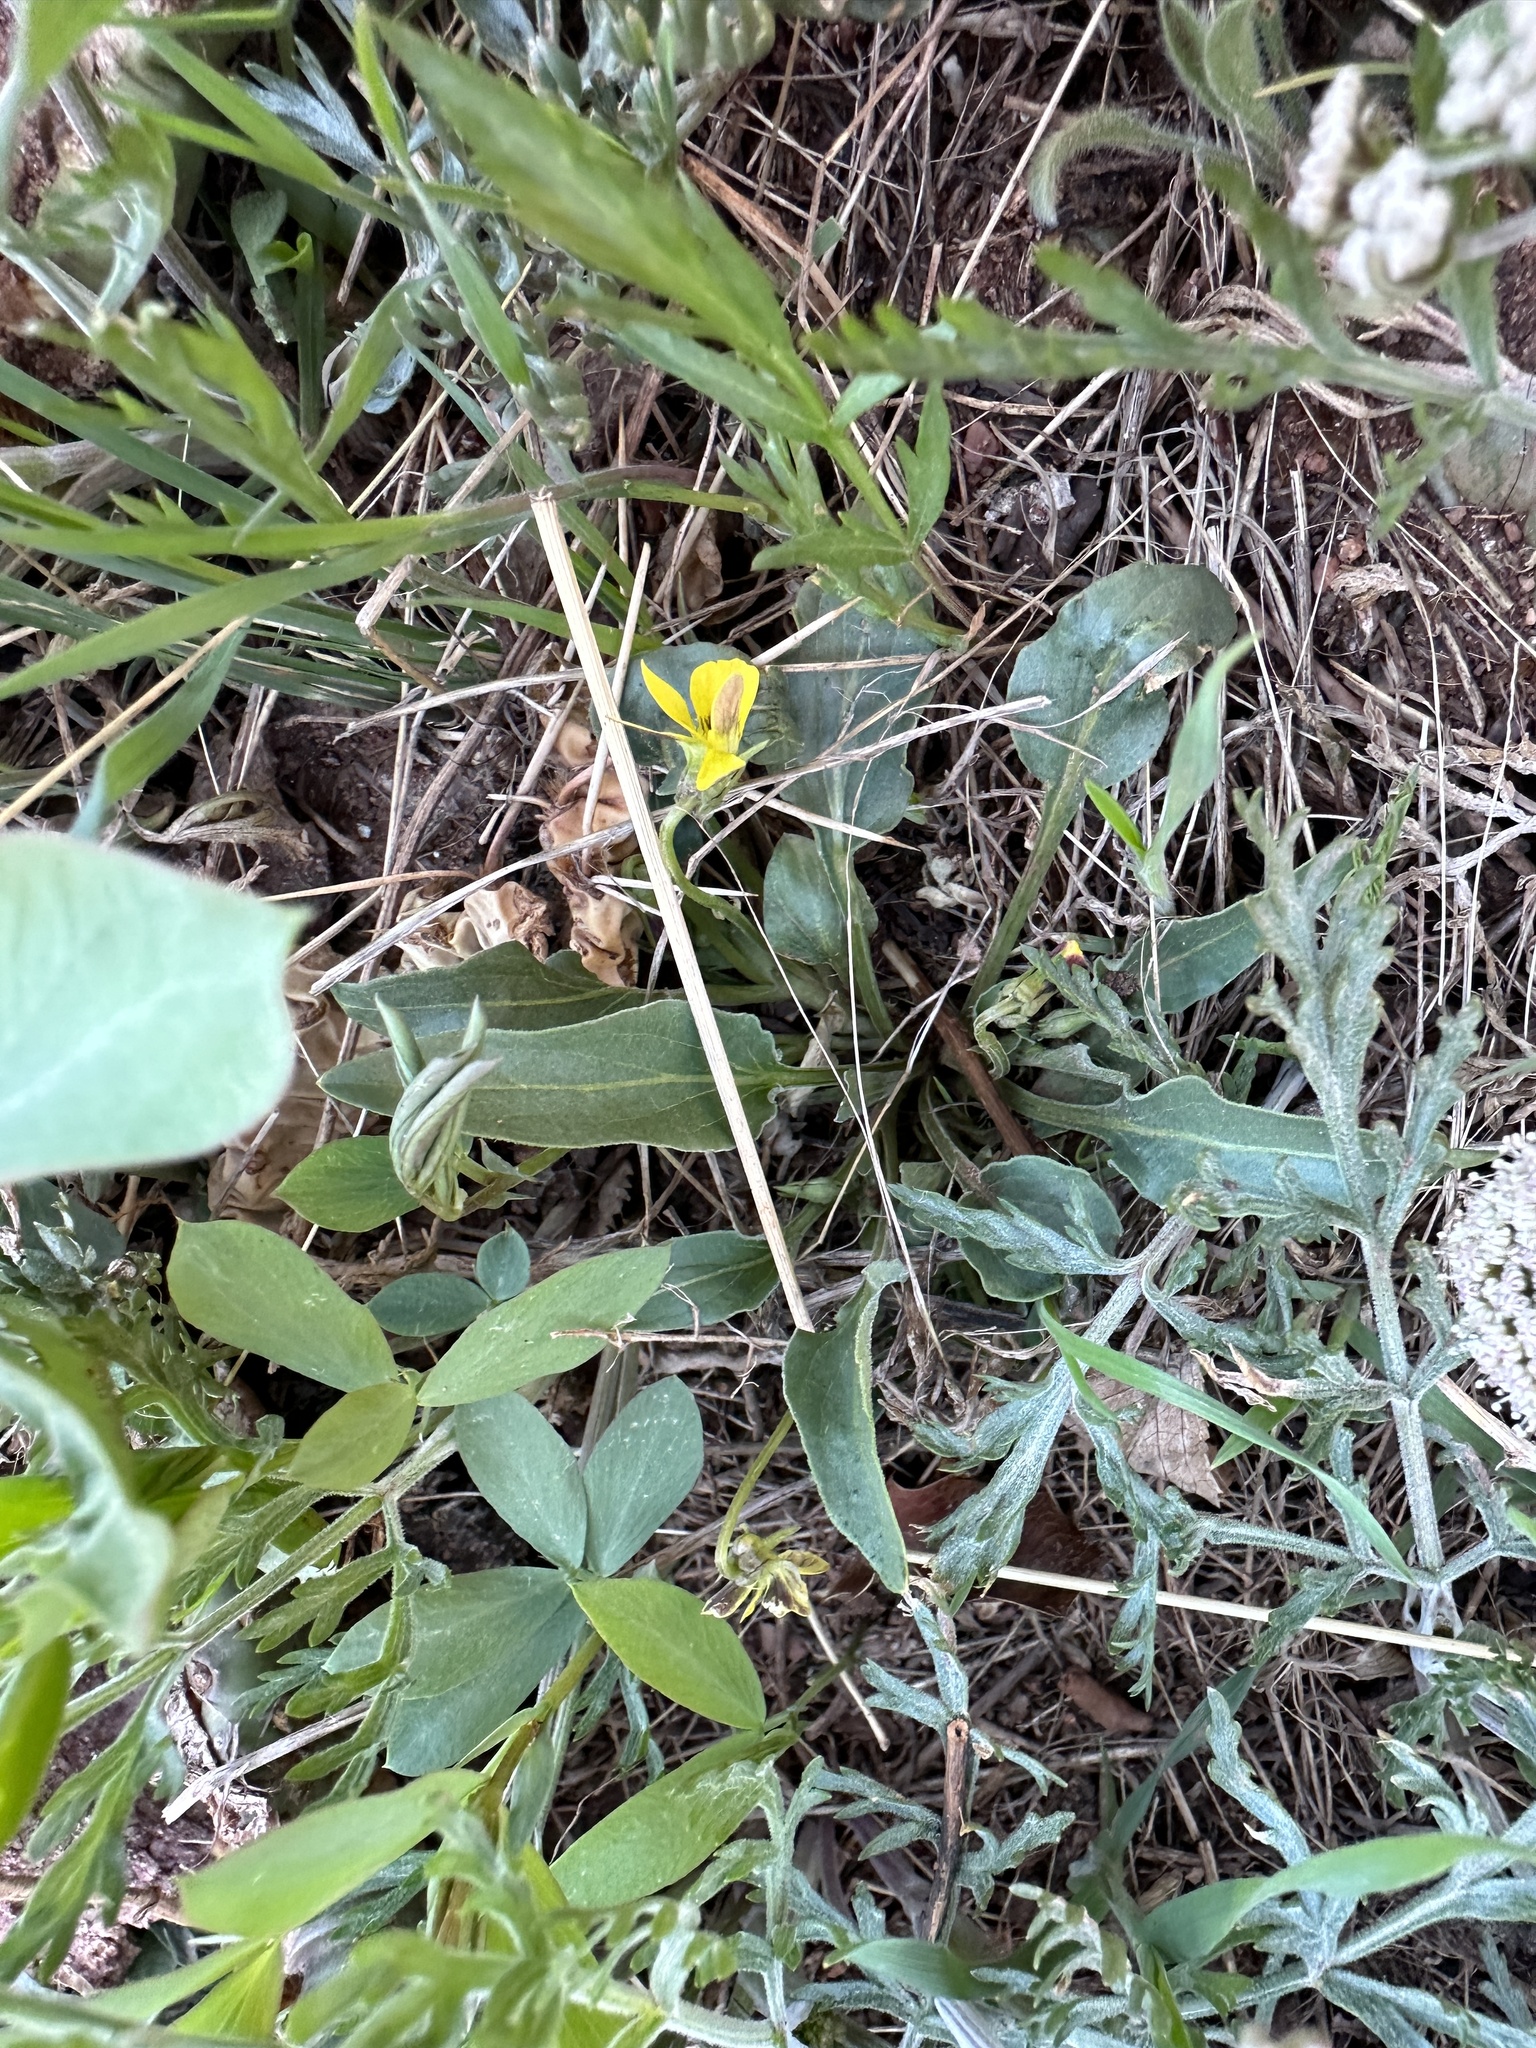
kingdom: Plantae
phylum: Tracheophyta
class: Magnoliopsida
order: Malpighiales
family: Violaceae
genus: Viola
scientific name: Viola nuttallii
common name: Yellow prairie violet
